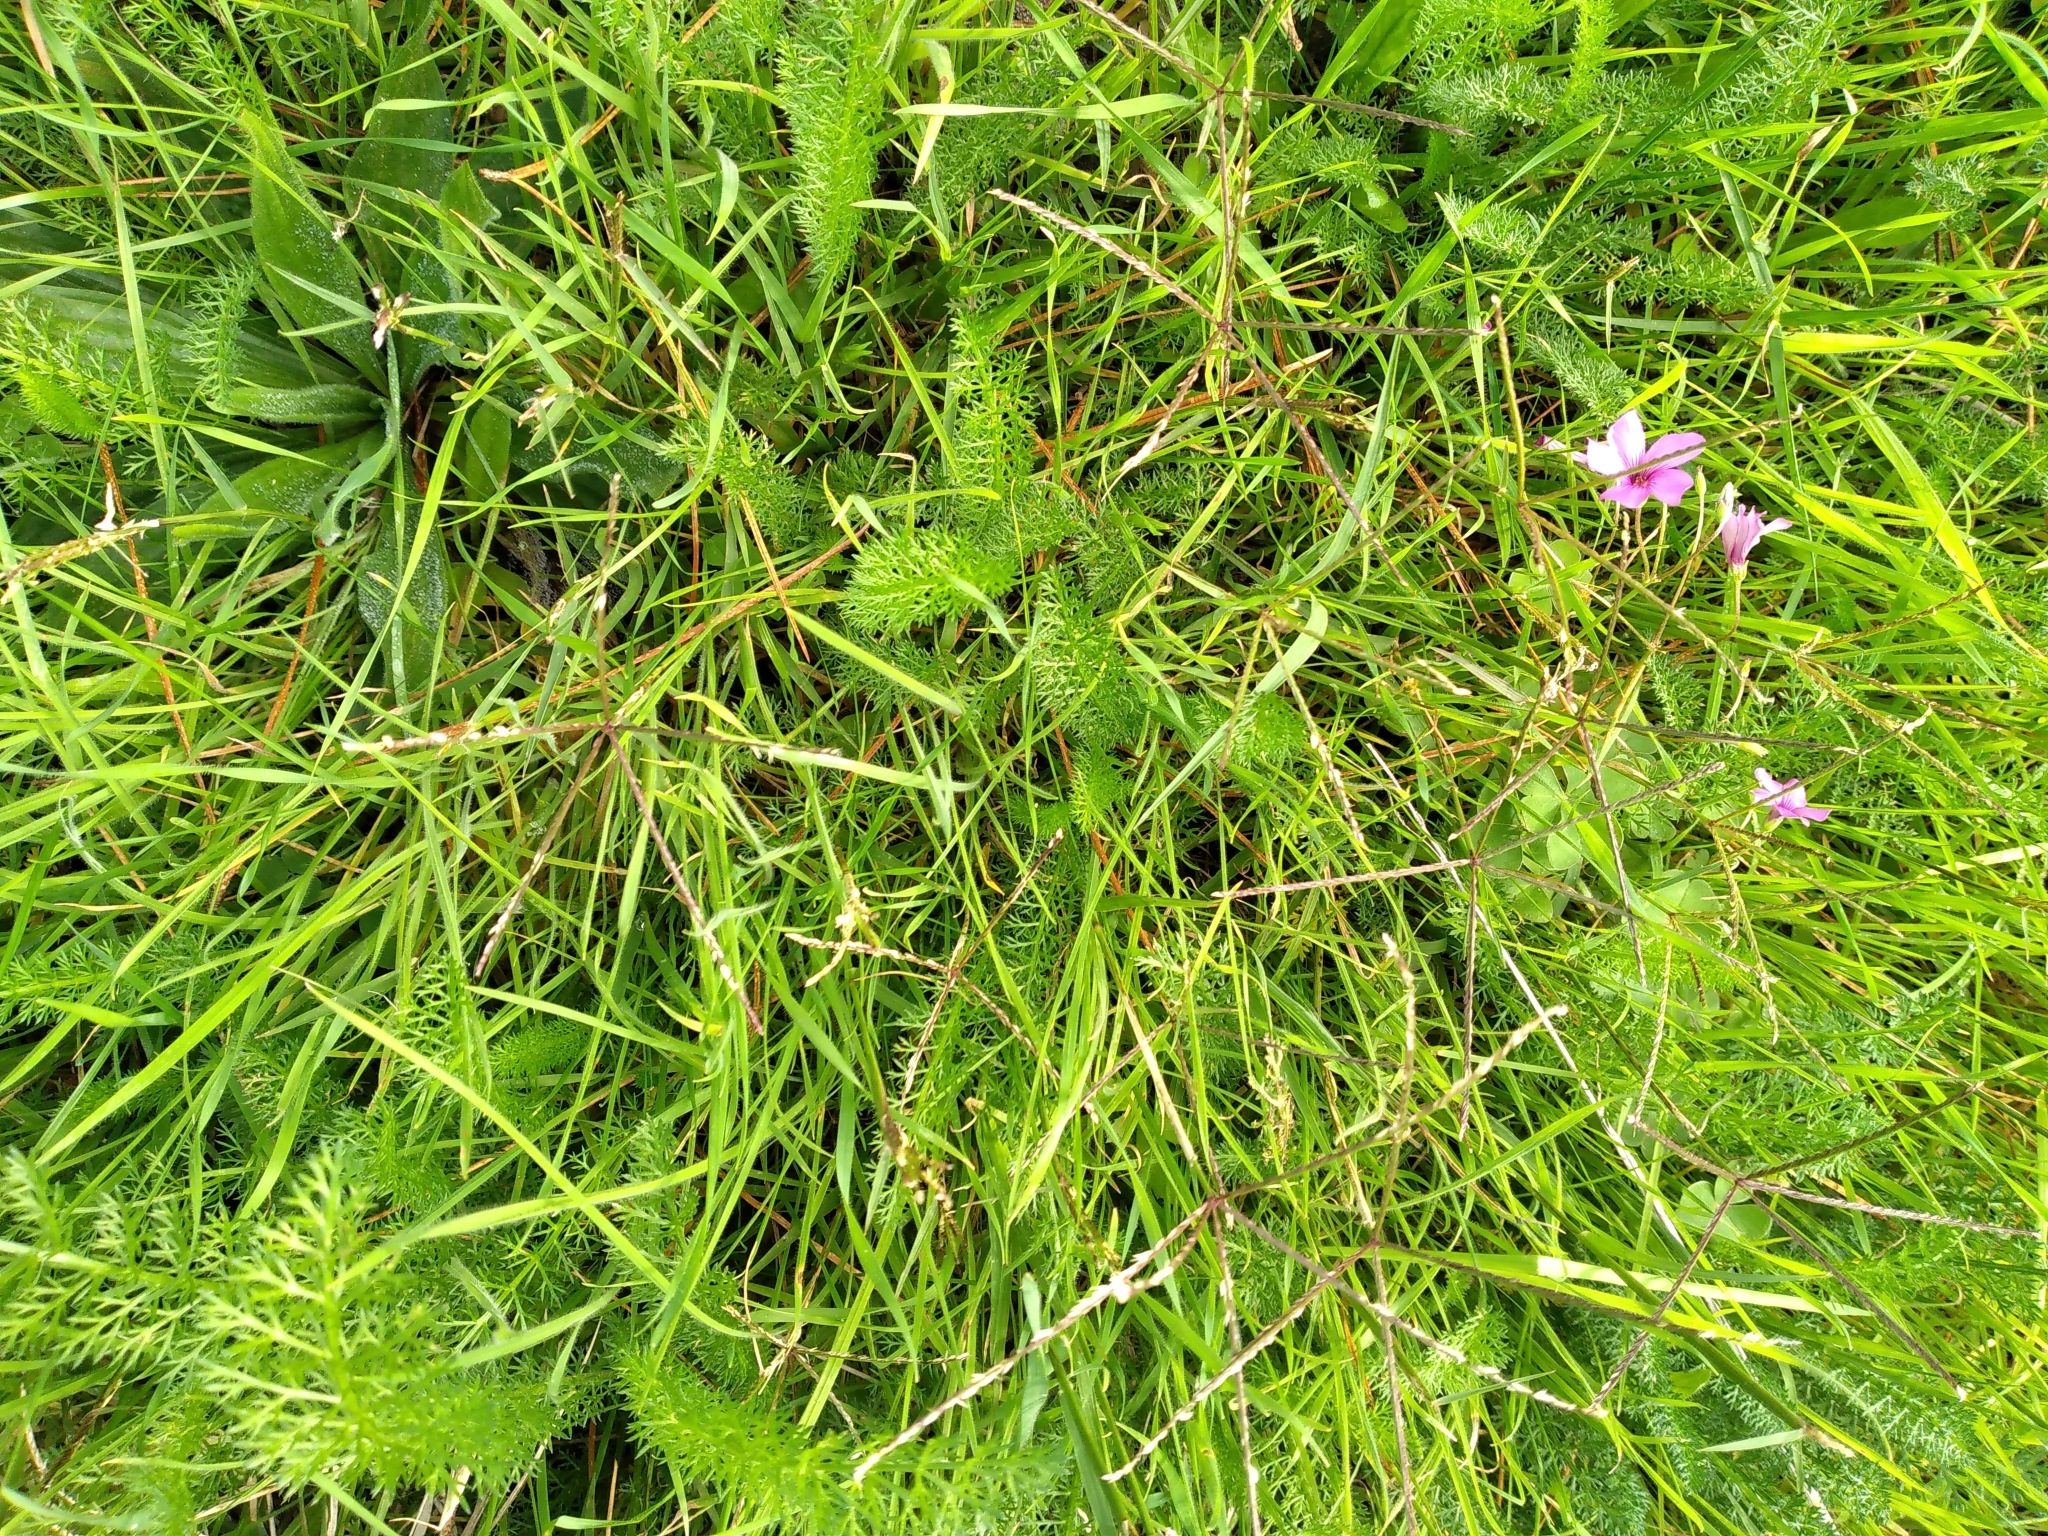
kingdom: Plantae
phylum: Tracheophyta
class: Liliopsida
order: Poales
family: Poaceae
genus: Cynodon
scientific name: Cynodon dactylon
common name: Bermuda grass
